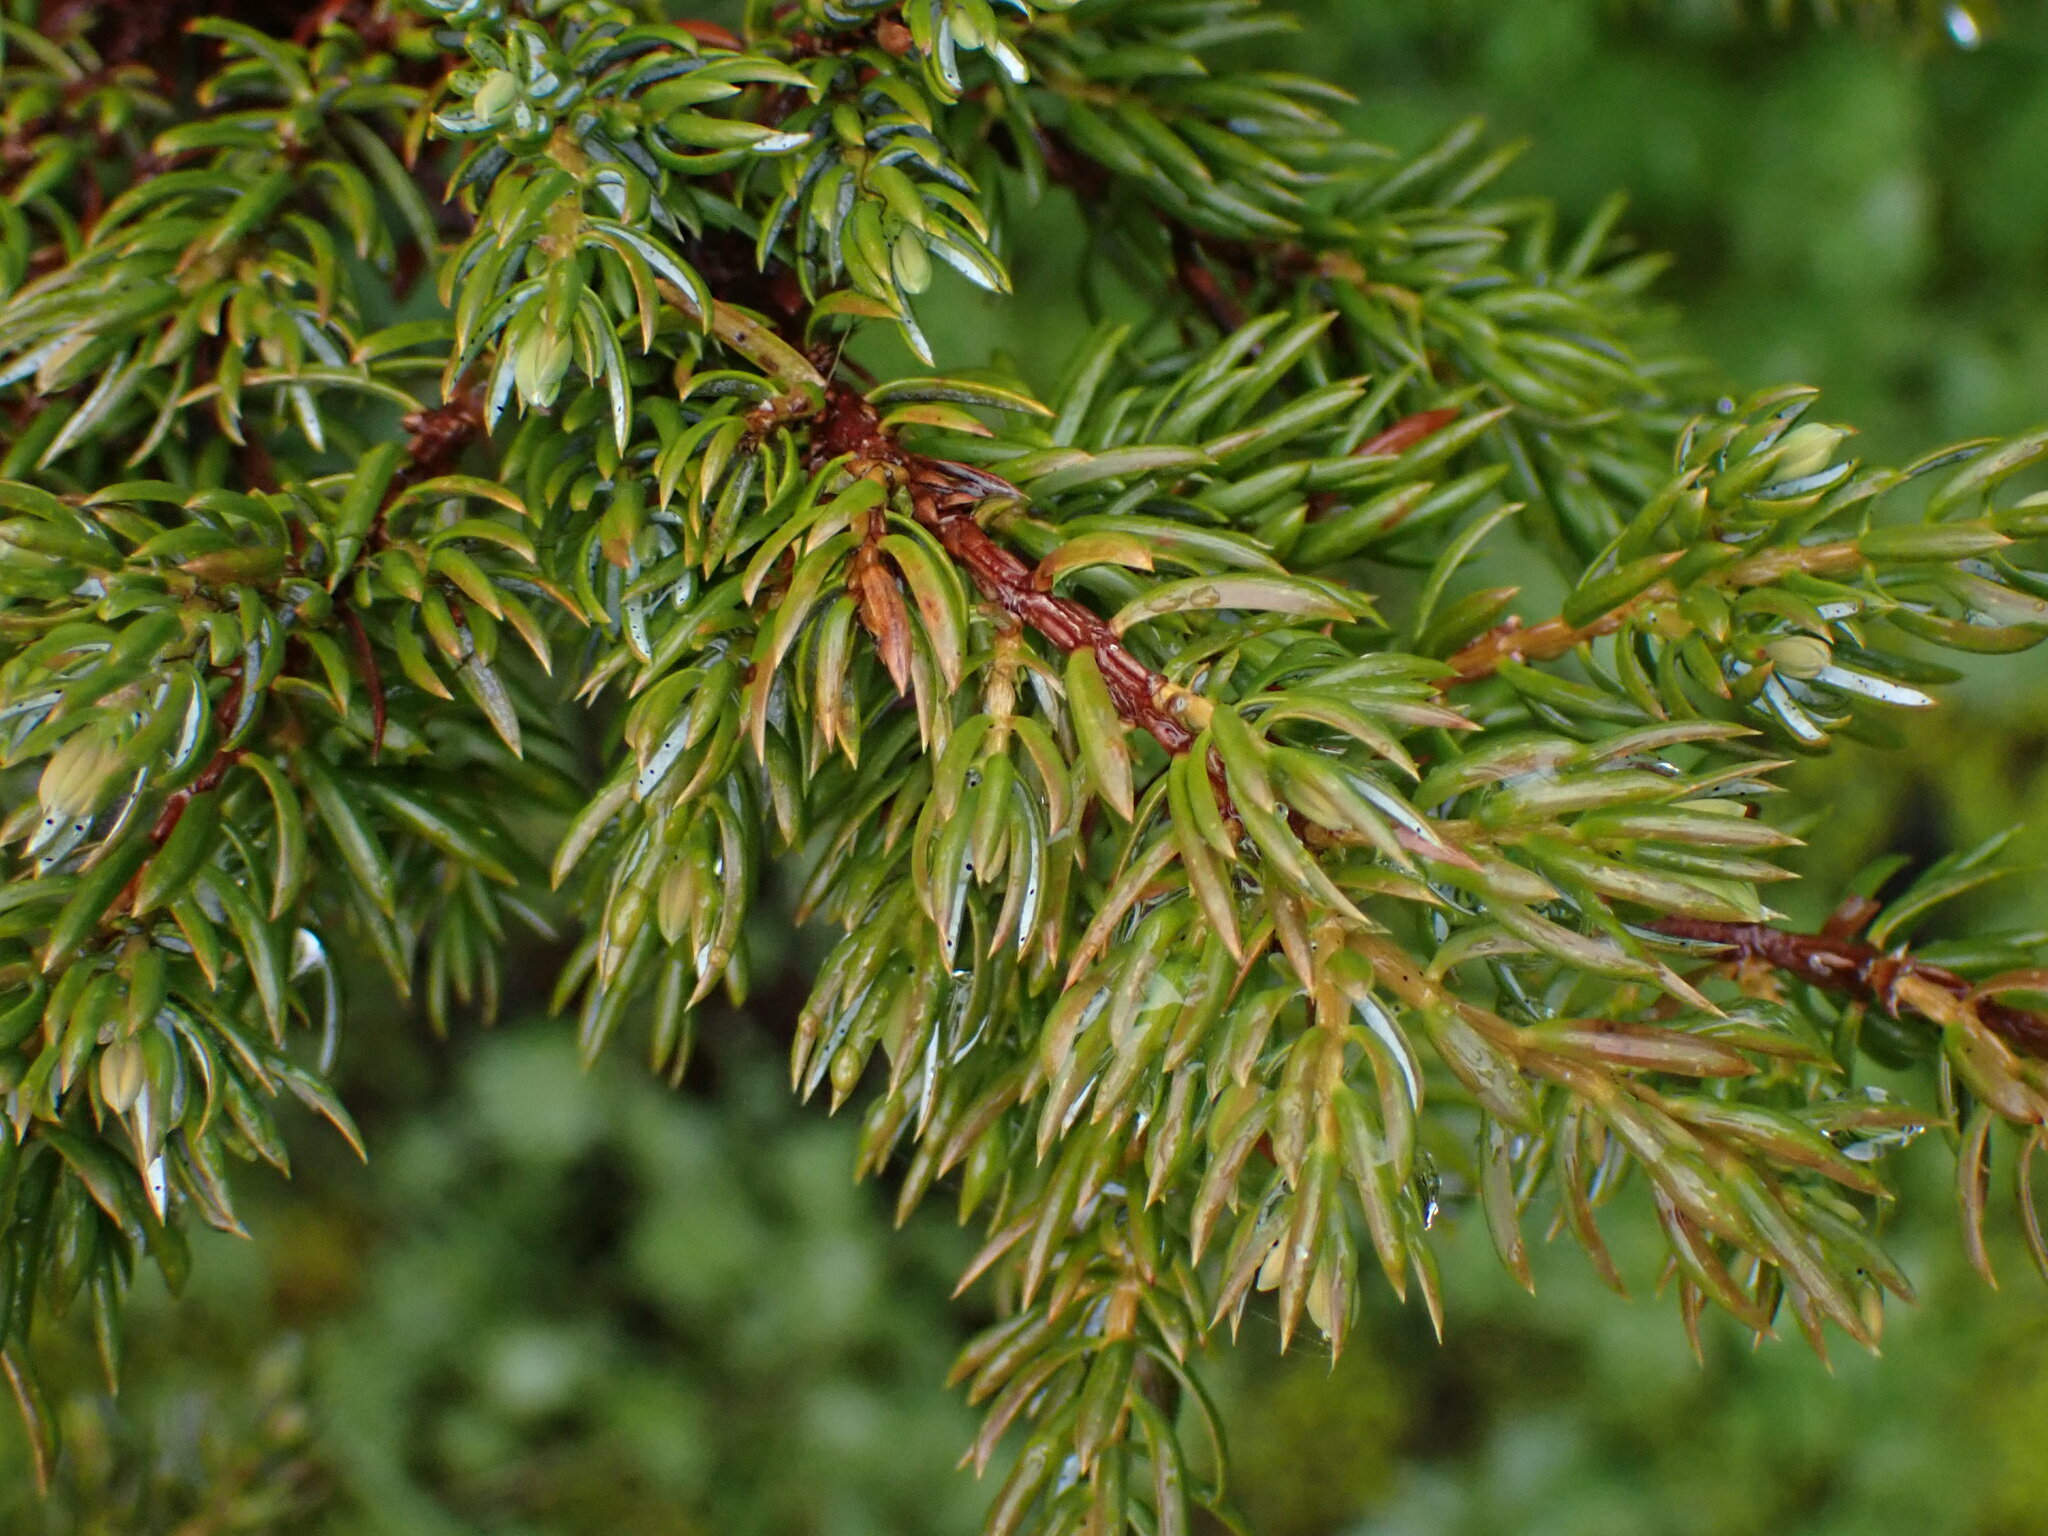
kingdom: Plantae
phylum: Tracheophyta
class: Pinopsida
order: Pinales
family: Cupressaceae
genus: Juniperus
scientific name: Juniperus communis
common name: Common juniper
